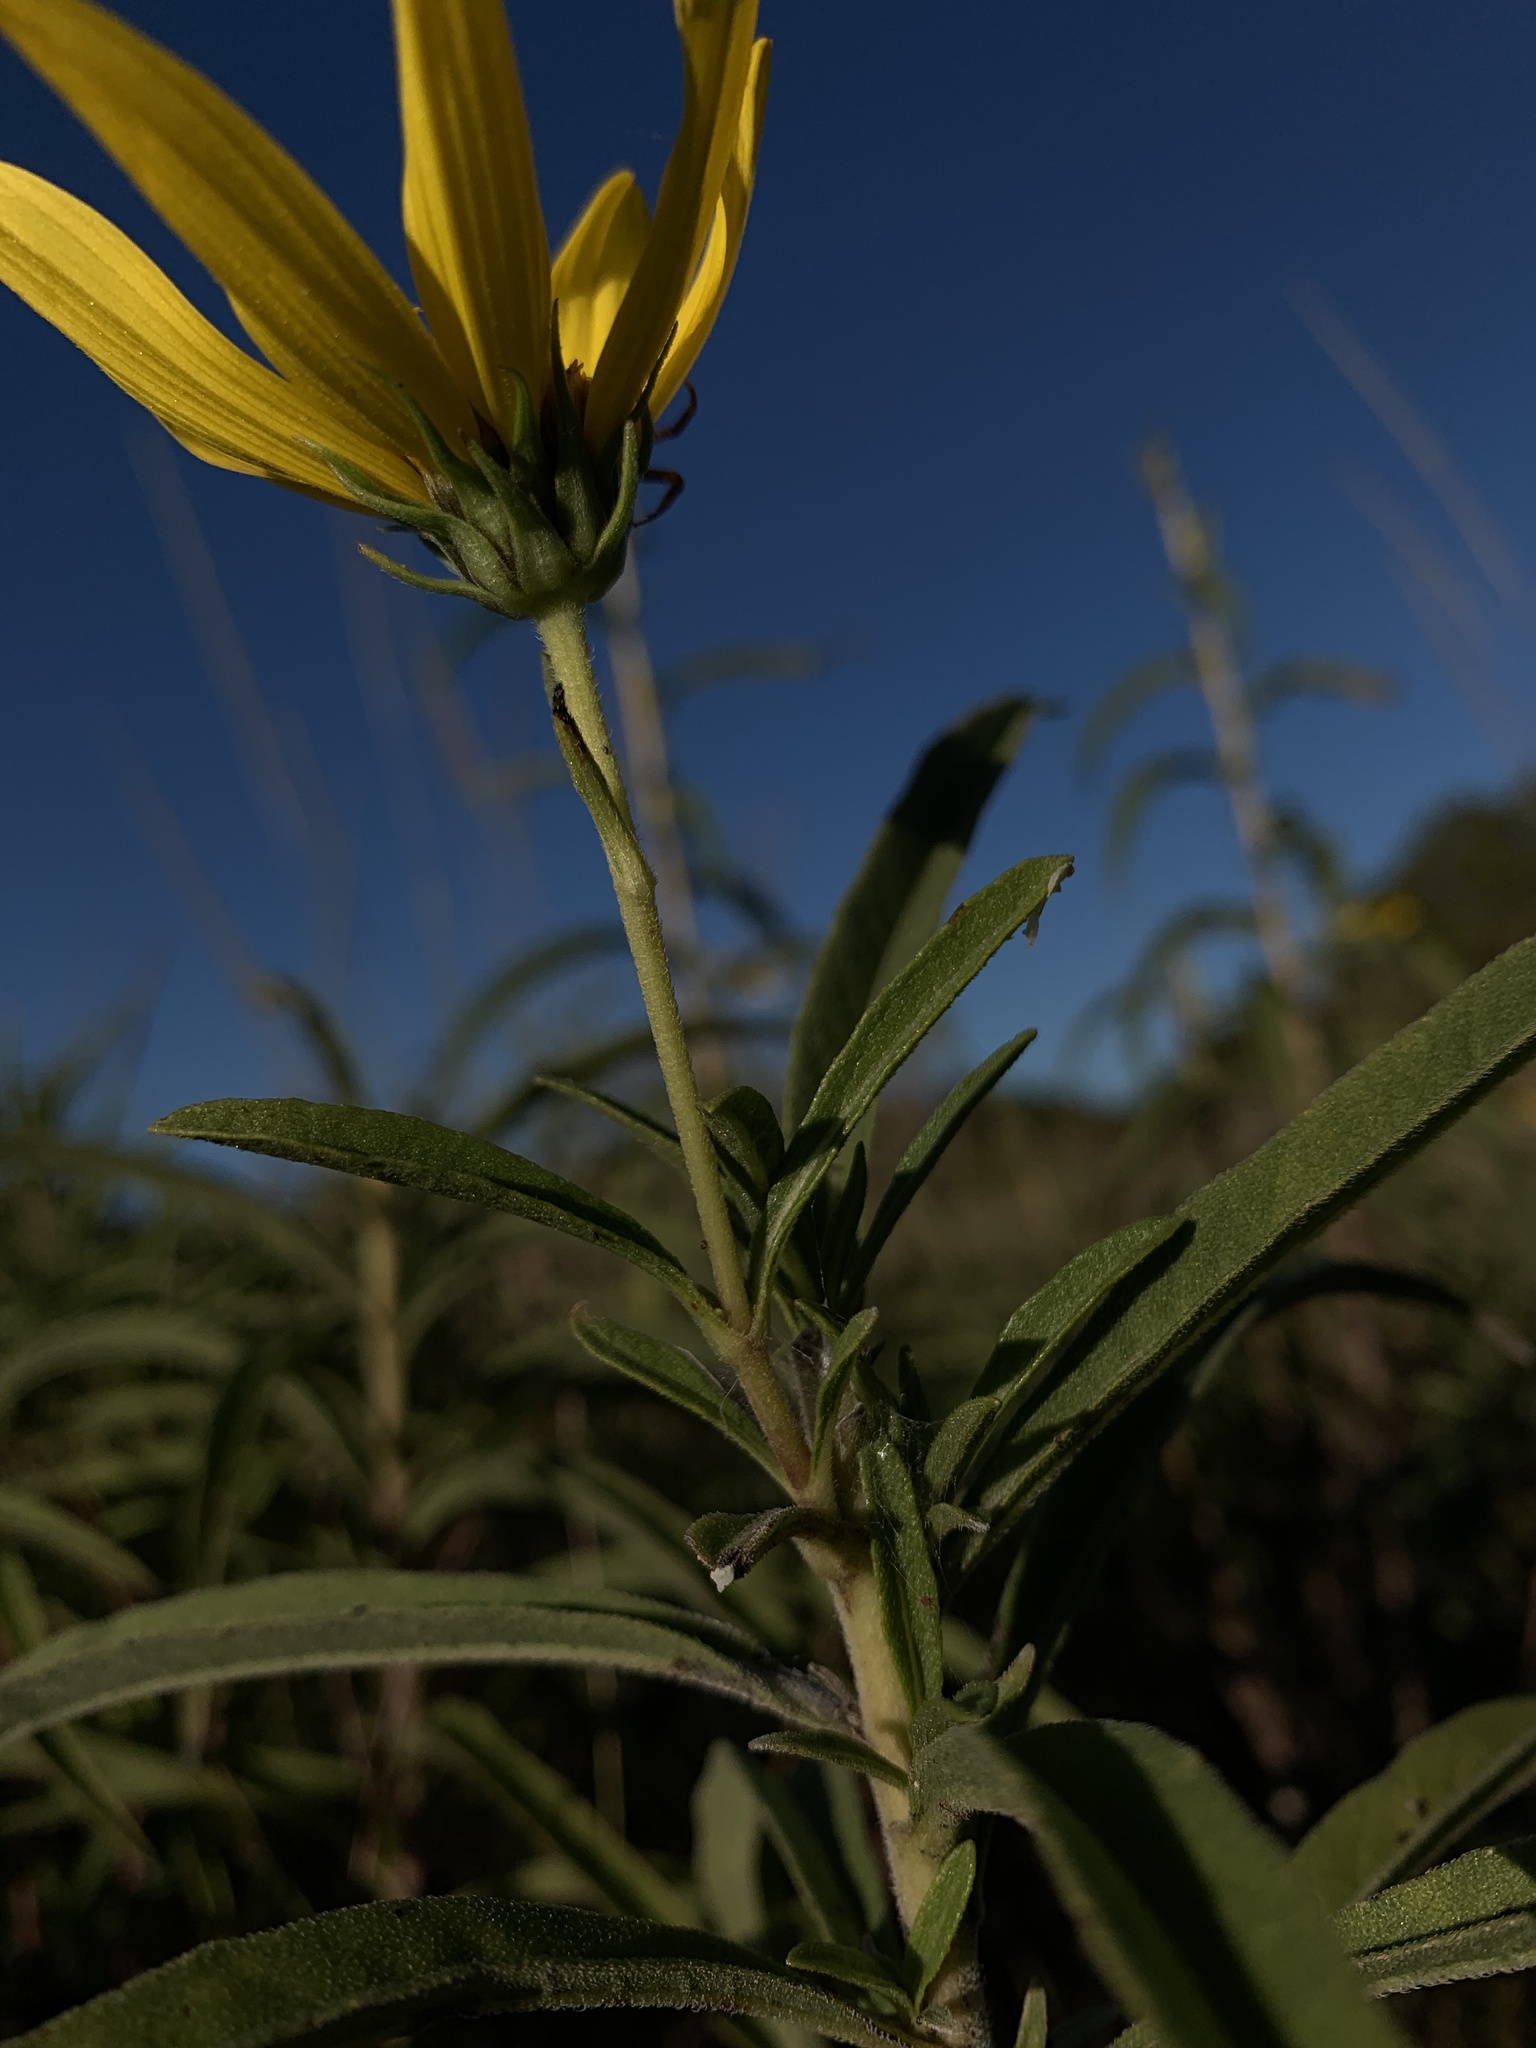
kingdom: Plantae
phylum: Tracheophyta
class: Magnoliopsida
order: Asterales
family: Asteraceae
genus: Helianthus
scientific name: Helianthus maximiliani
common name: Maximilian's sunflower
